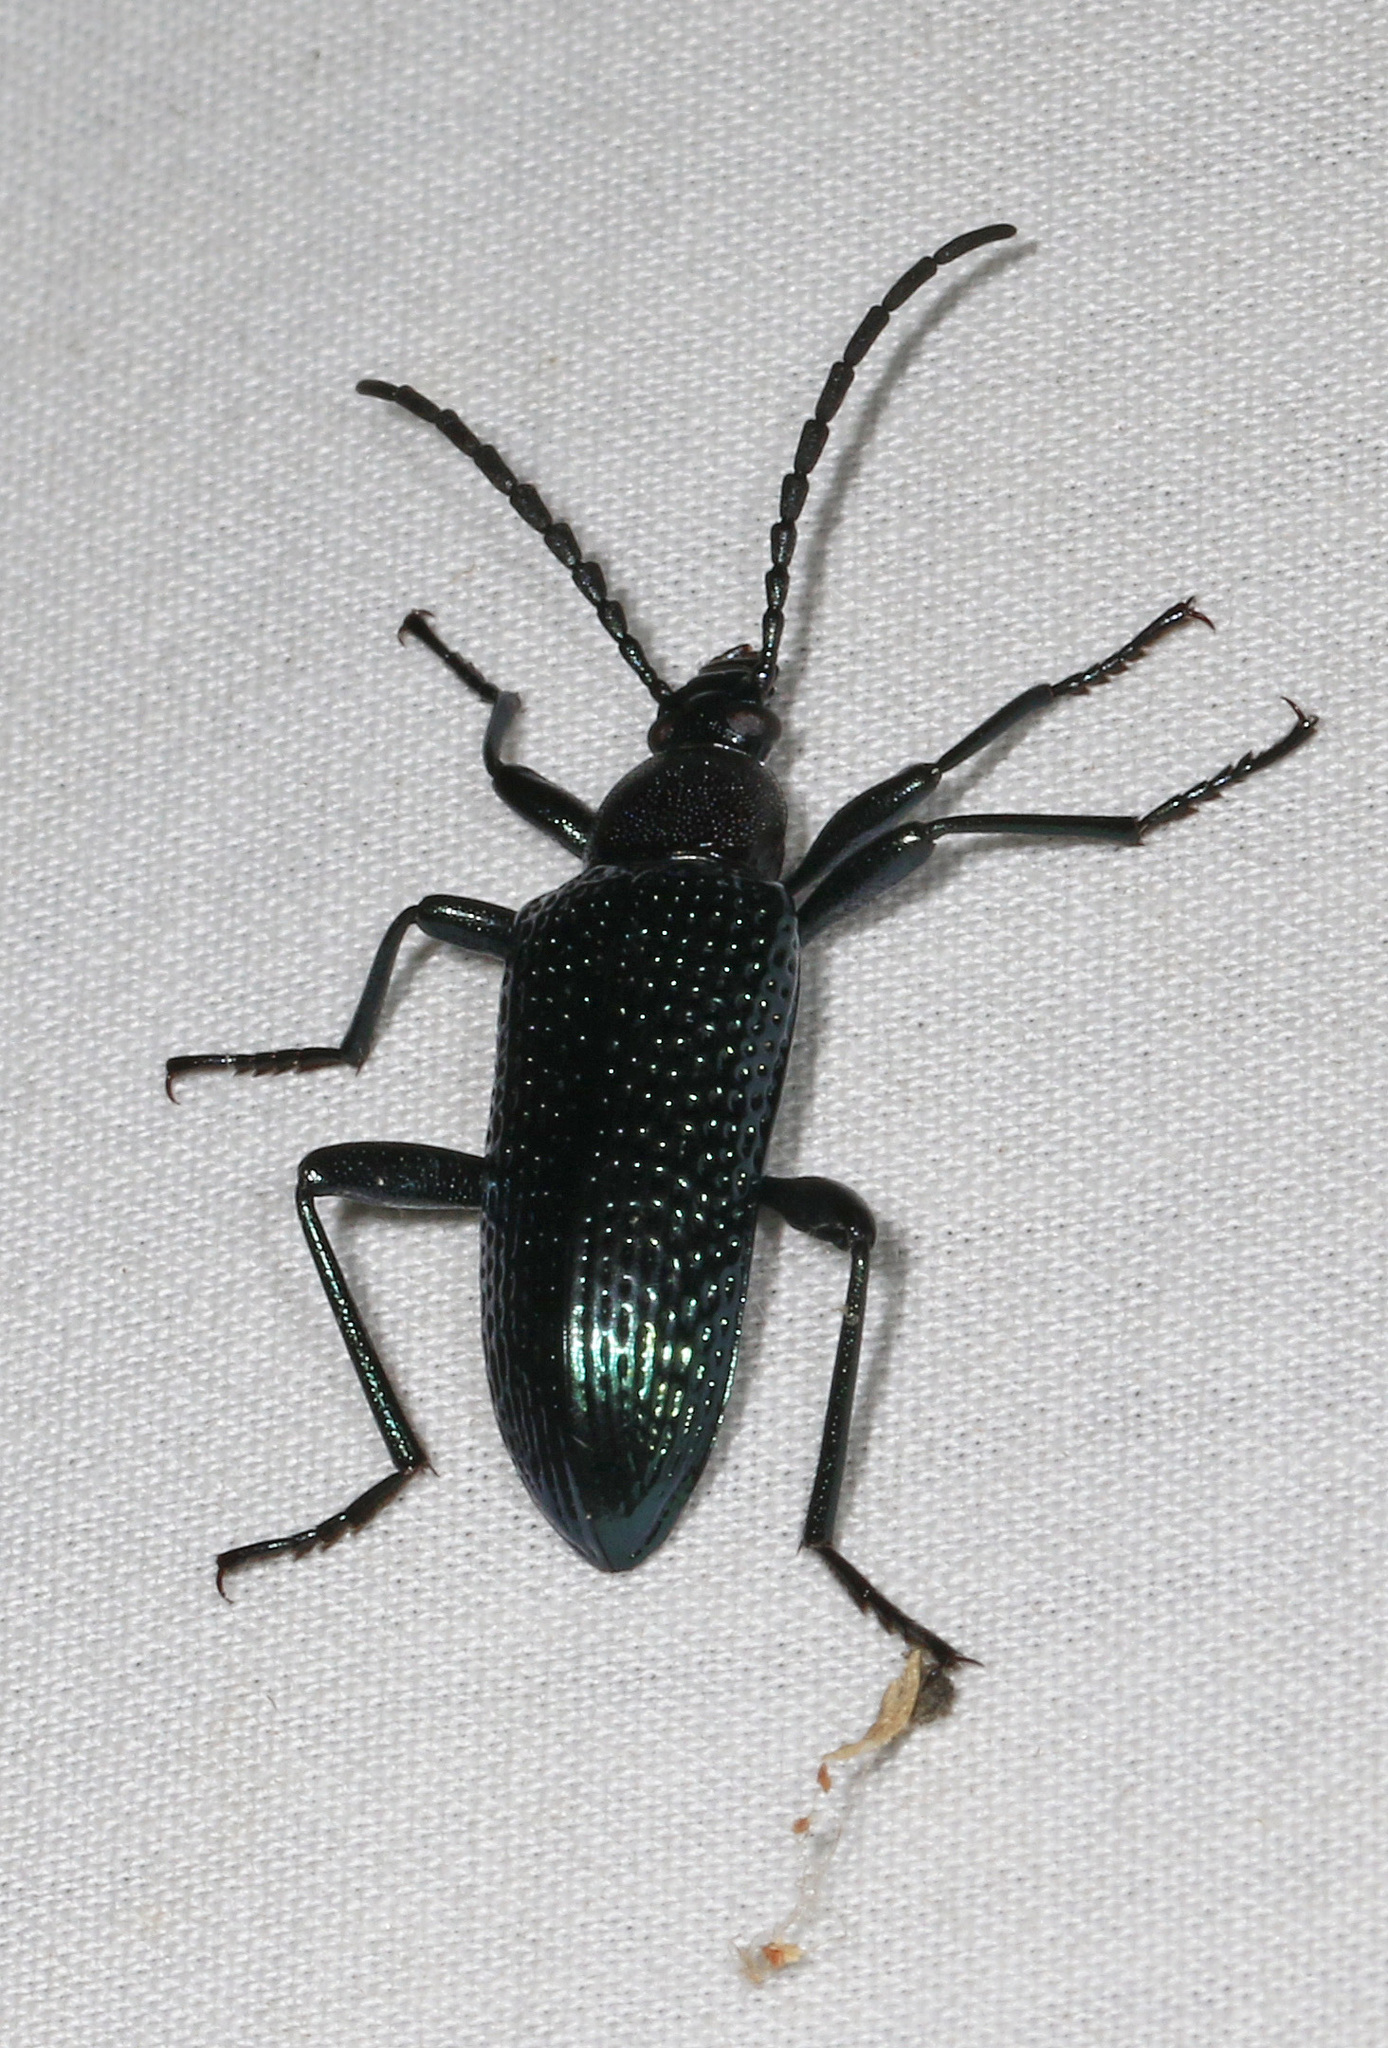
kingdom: Animalia
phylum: Arthropoda
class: Insecta
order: Coleoptera
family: Tenebrionidae
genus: Praeugena
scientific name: Praeugena
